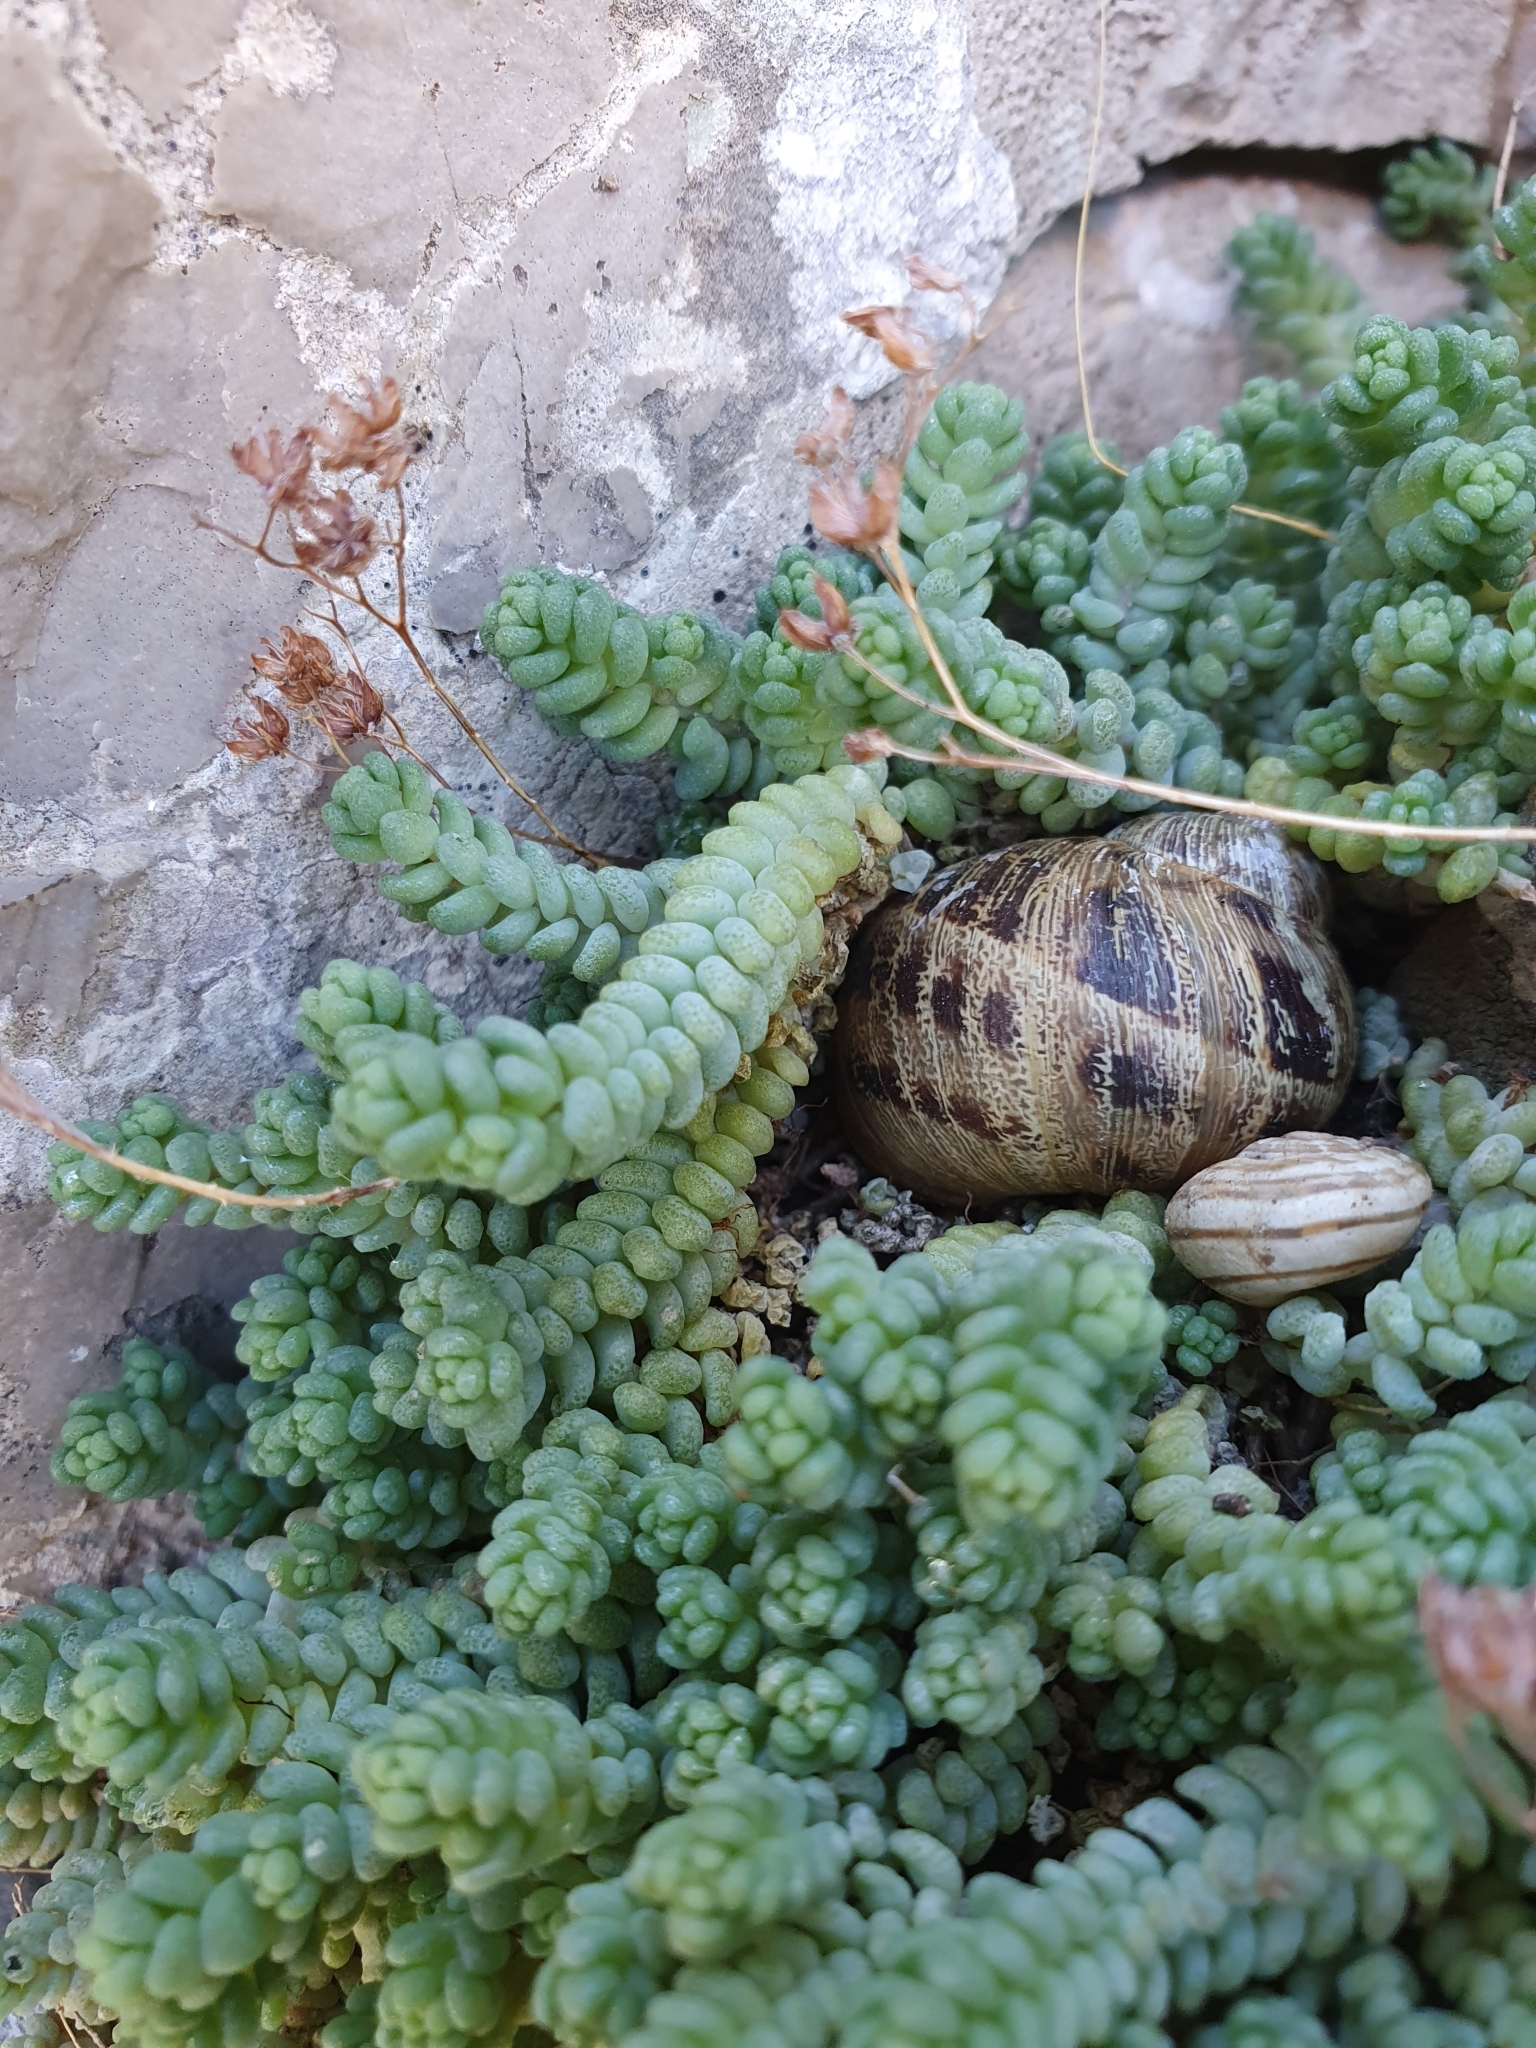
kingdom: Plantae
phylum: Tracheophyta
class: Magnoliopsida
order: Saxifragales
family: Crassulaceae
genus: Sedum
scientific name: Sedum dasyphyllum
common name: Thick-leaf stonecrop
